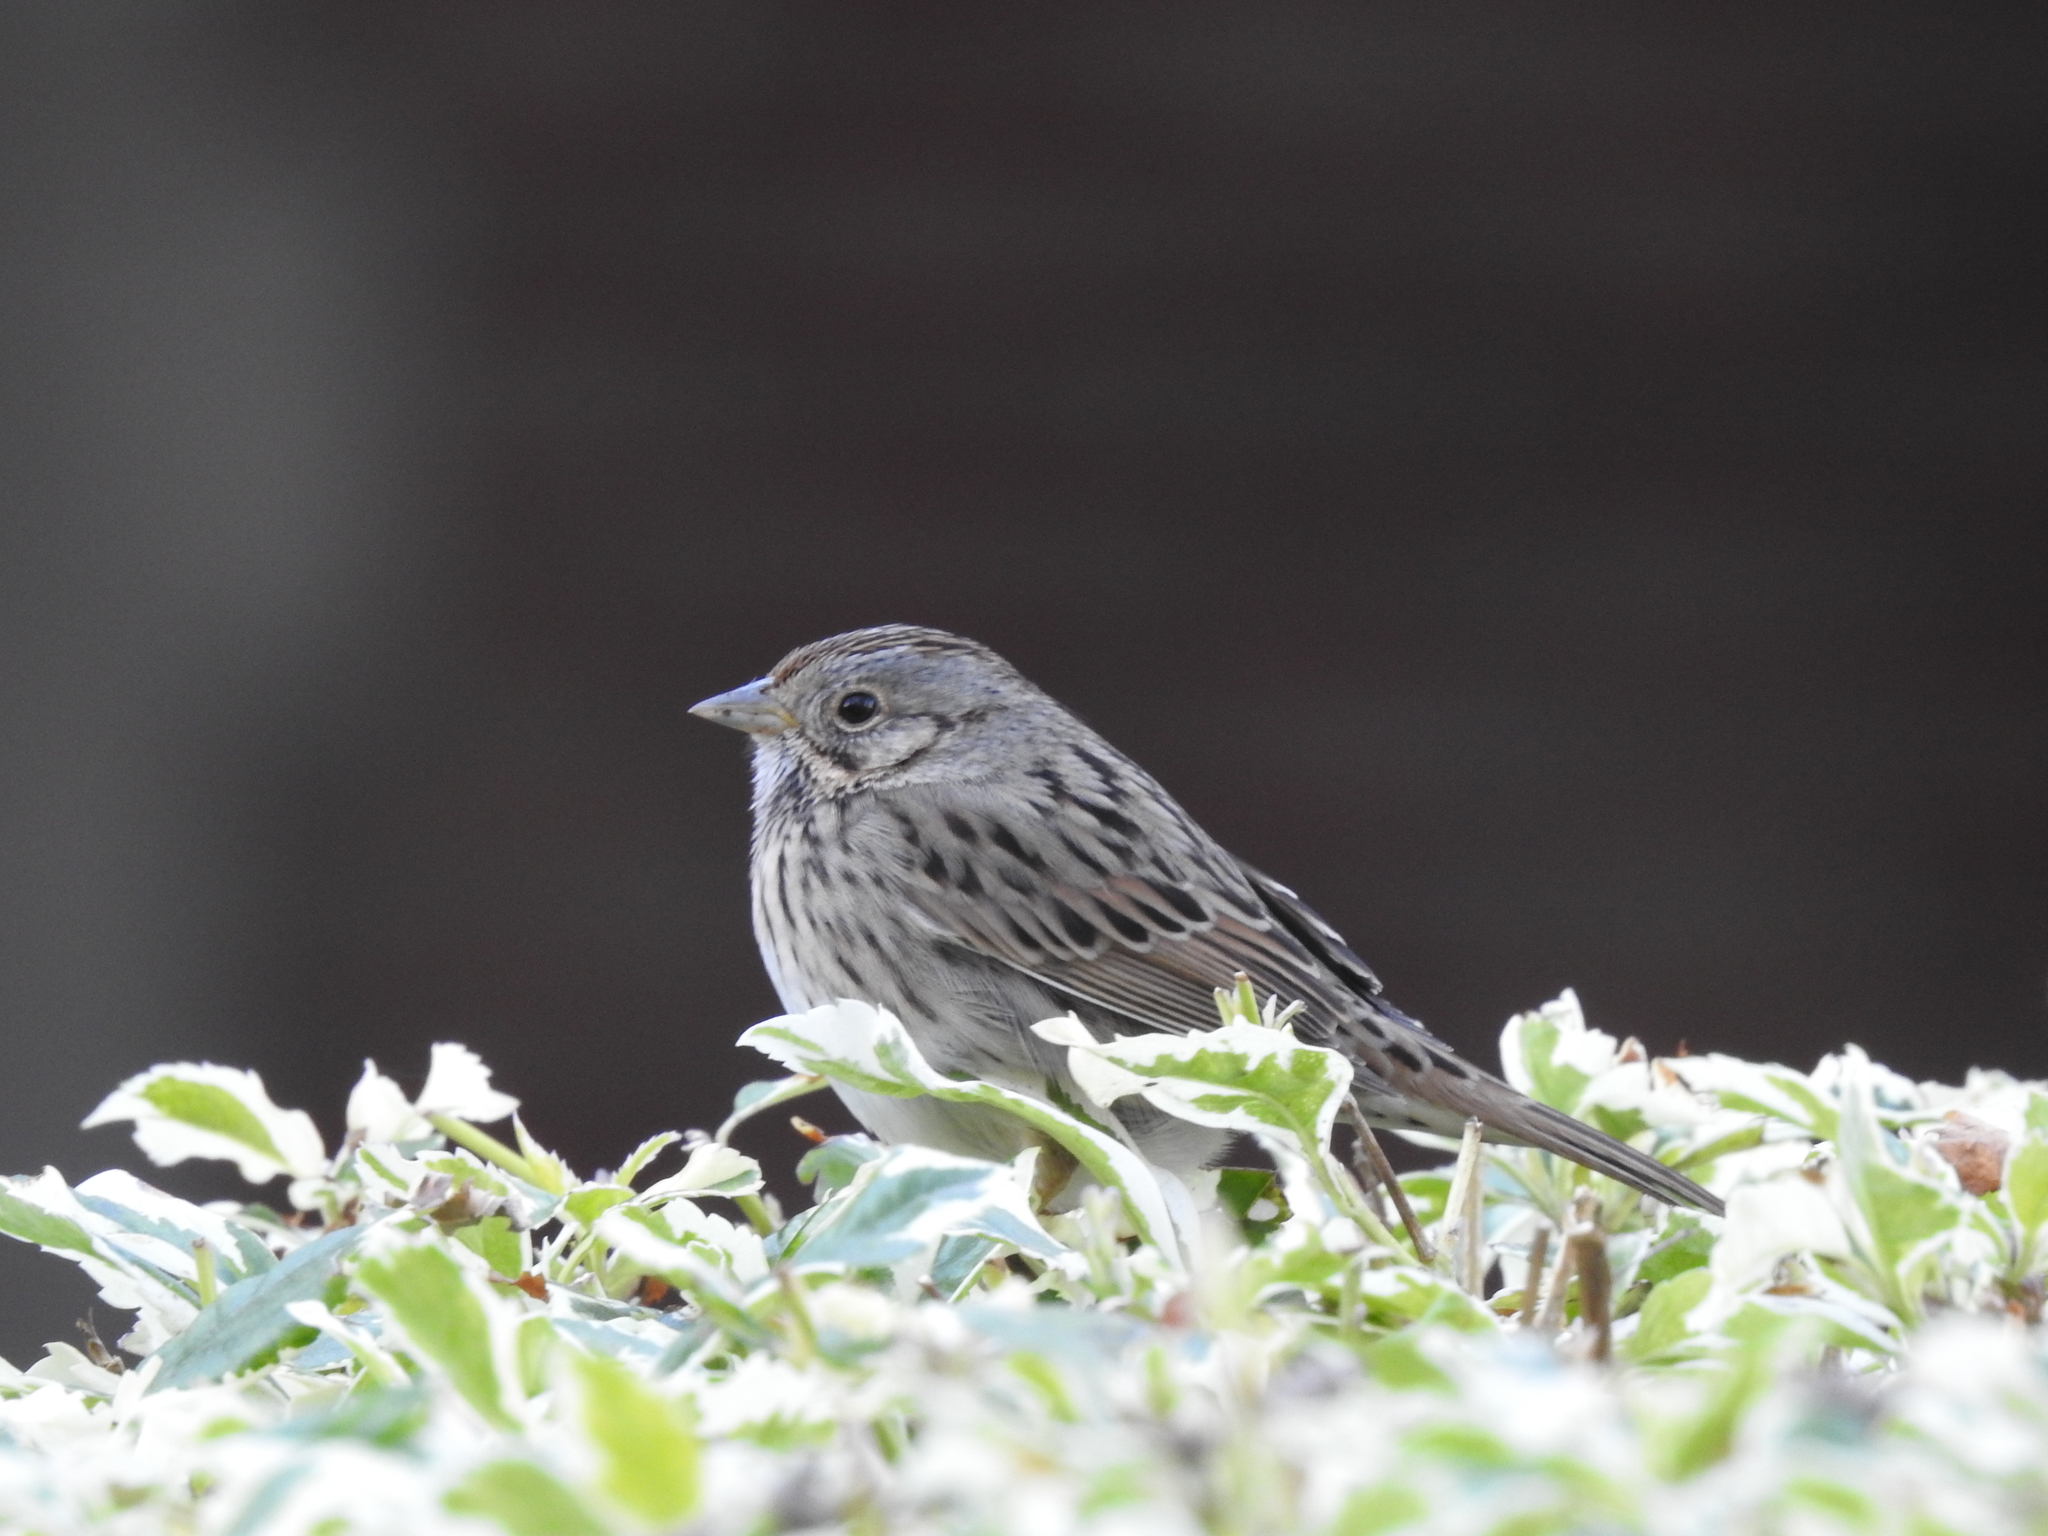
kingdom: Animalia
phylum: Chordata
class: Aves
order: Passeriformes
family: Passerellidae
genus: Melospiza
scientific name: Melospiza lincolnii
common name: Lincoln's sparrow
